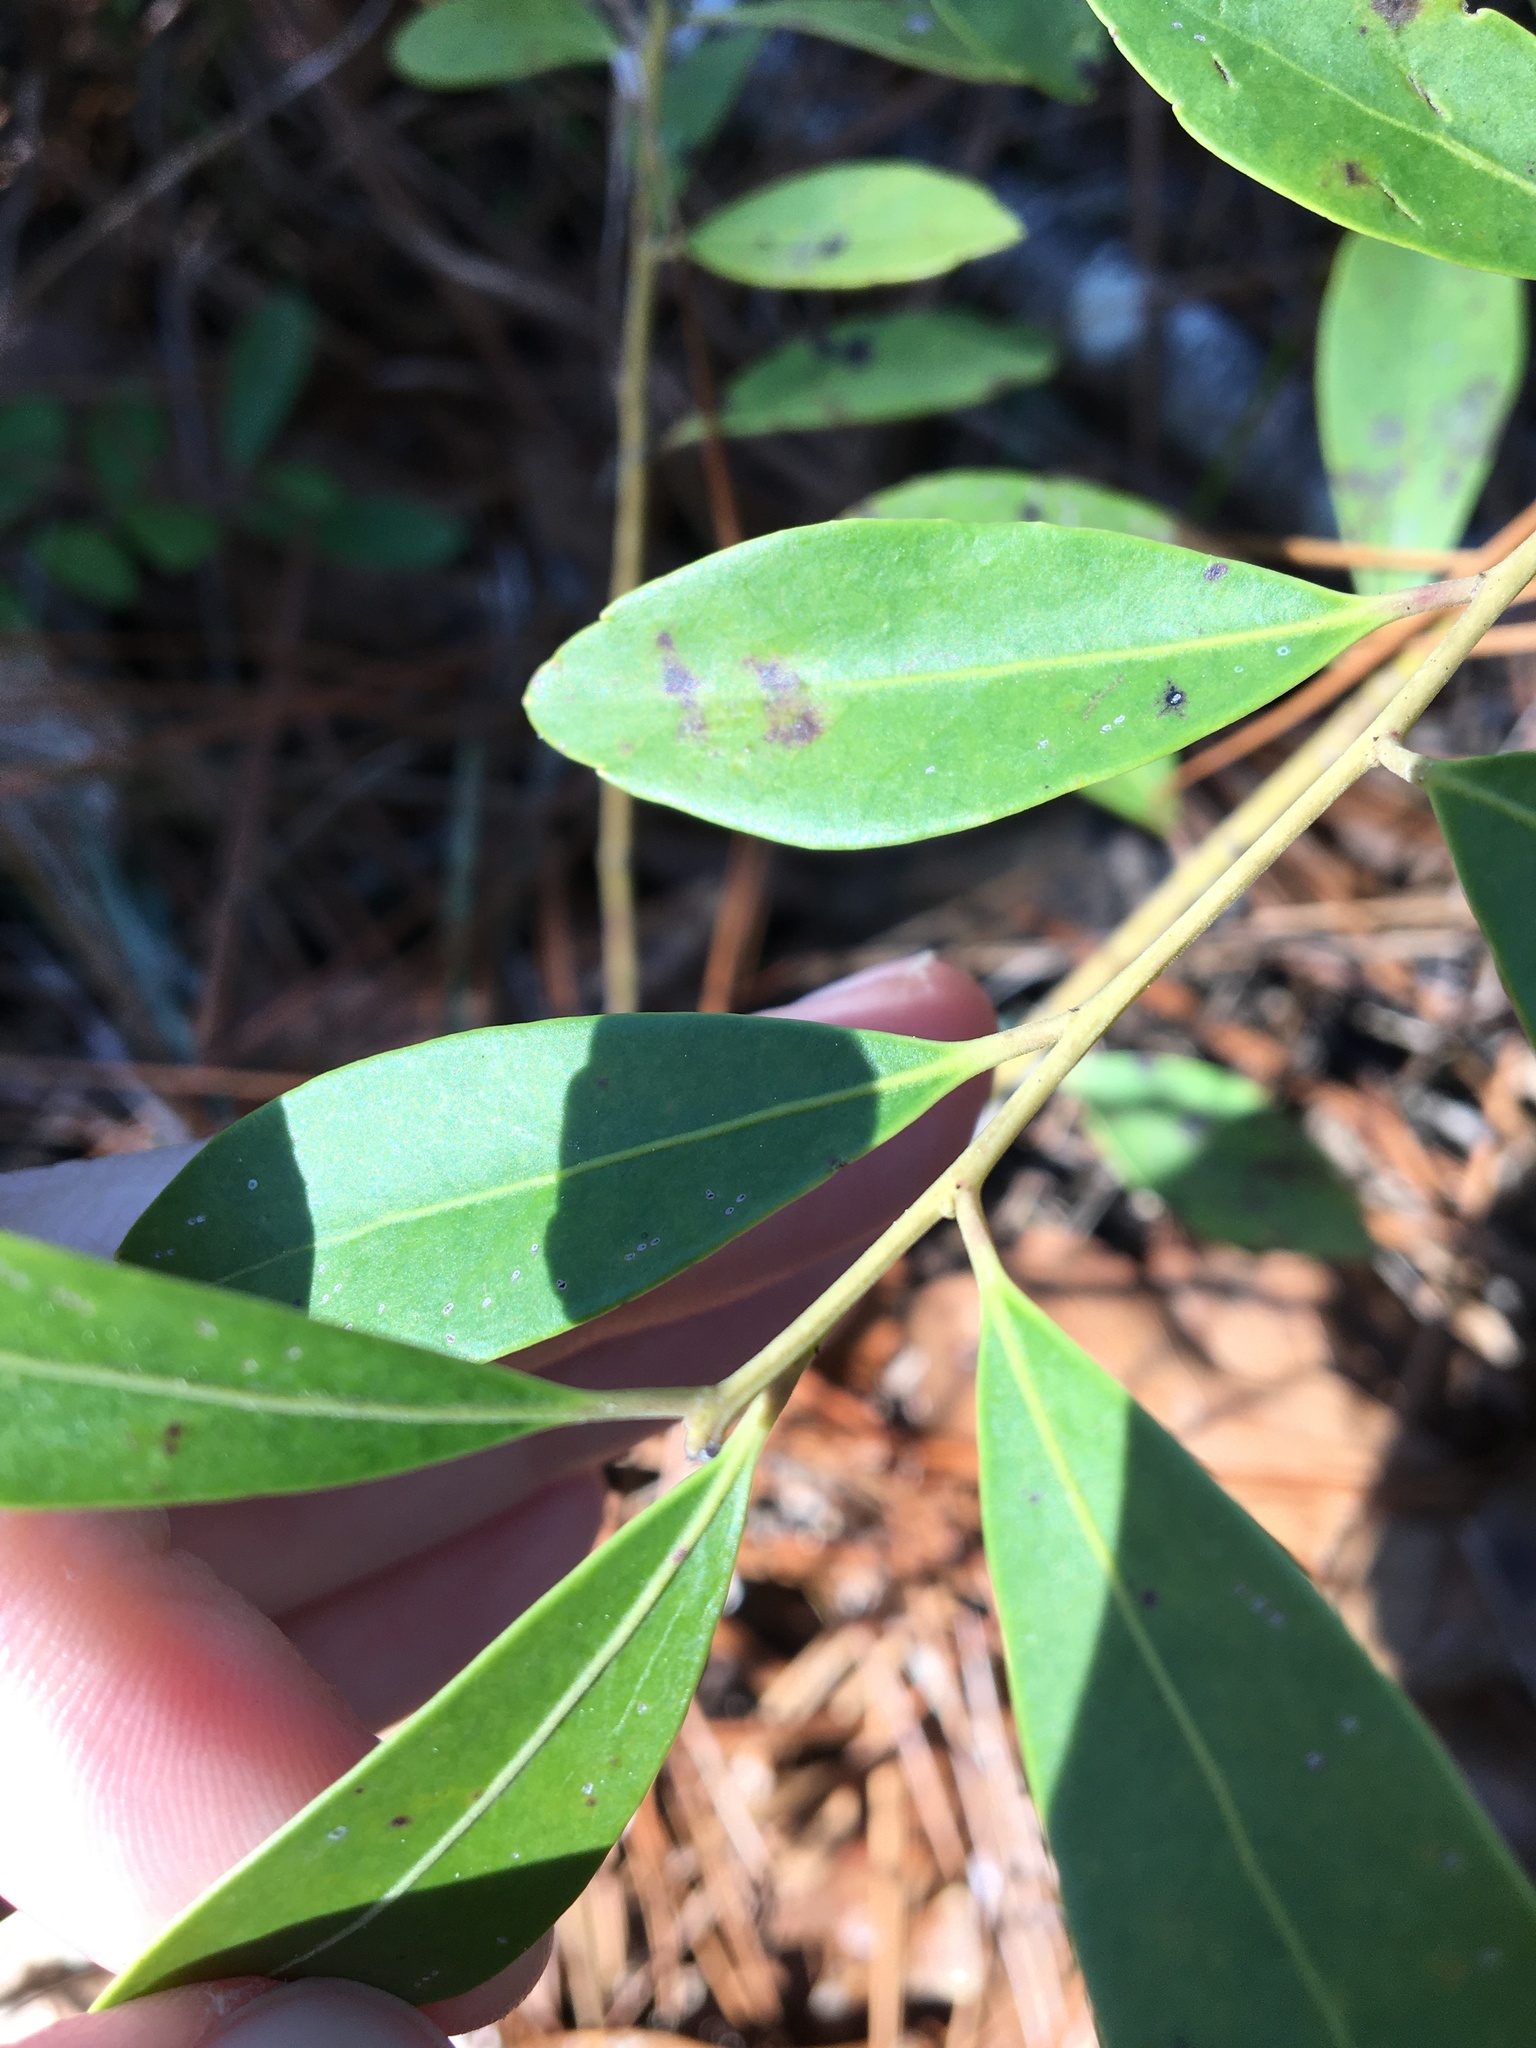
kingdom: Plantae
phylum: Tracheophyta
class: Magnoliopsida
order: Aquifoliales
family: Aquifoliaceae
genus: Ilex
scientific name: Ilex glabra
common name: Bitter gallberry
